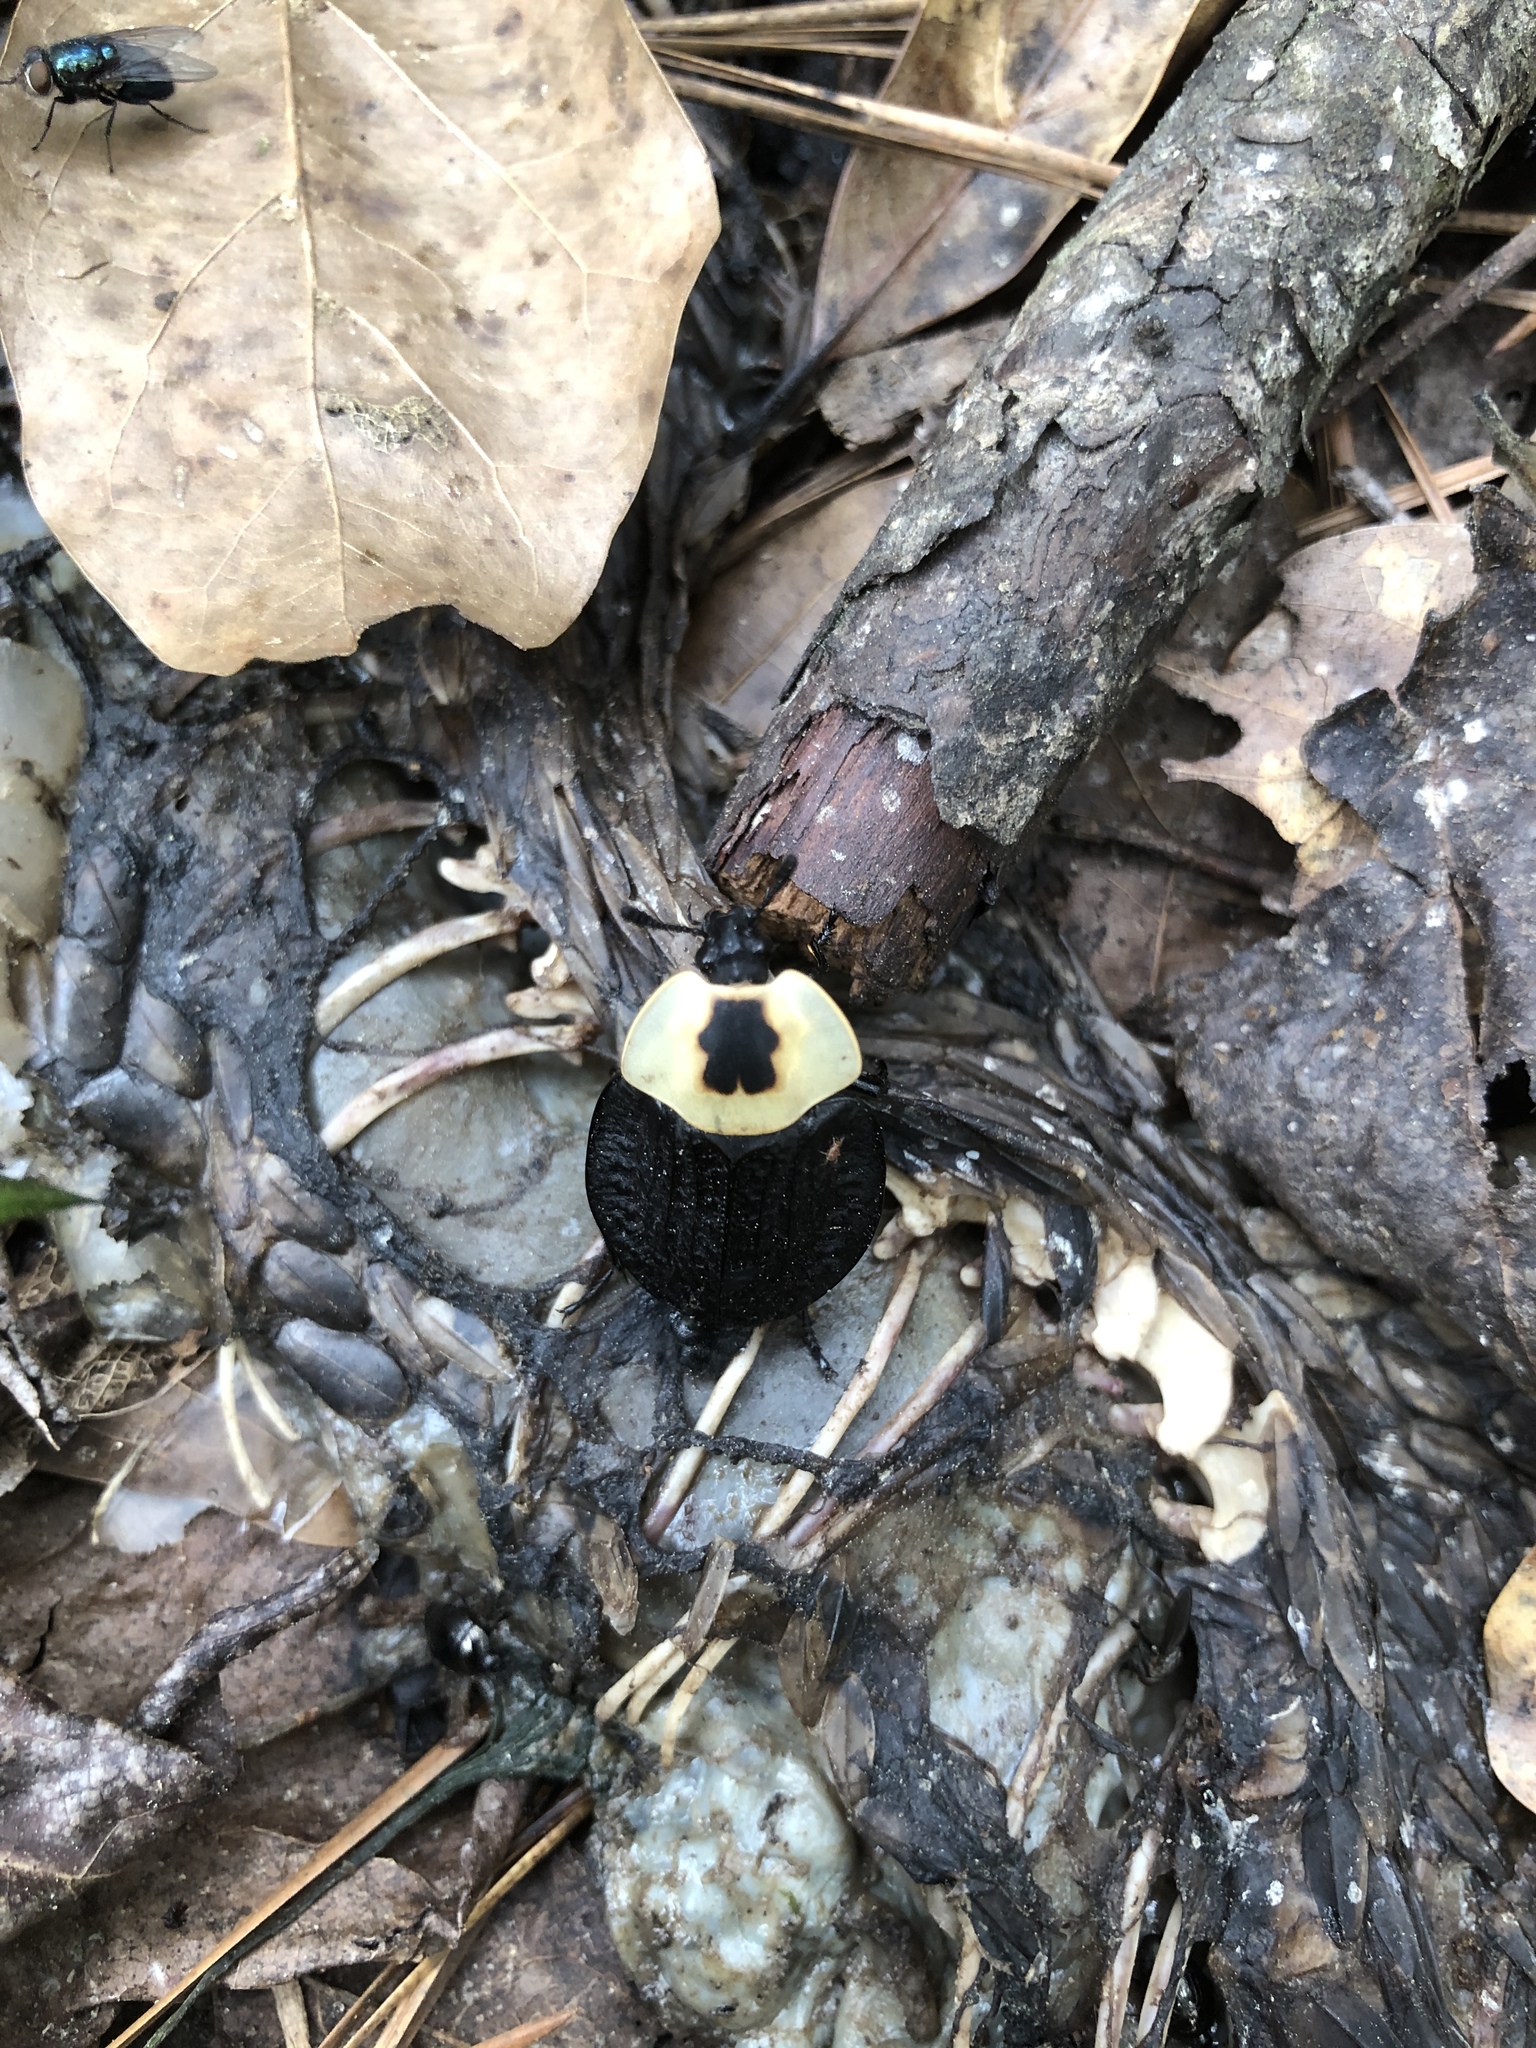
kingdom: Animalia
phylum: Arthropoda
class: Insecta
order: Coleoptera
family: Staphylinidae
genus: Necrophila
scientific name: Necrophila americana
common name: American carrion beetle
